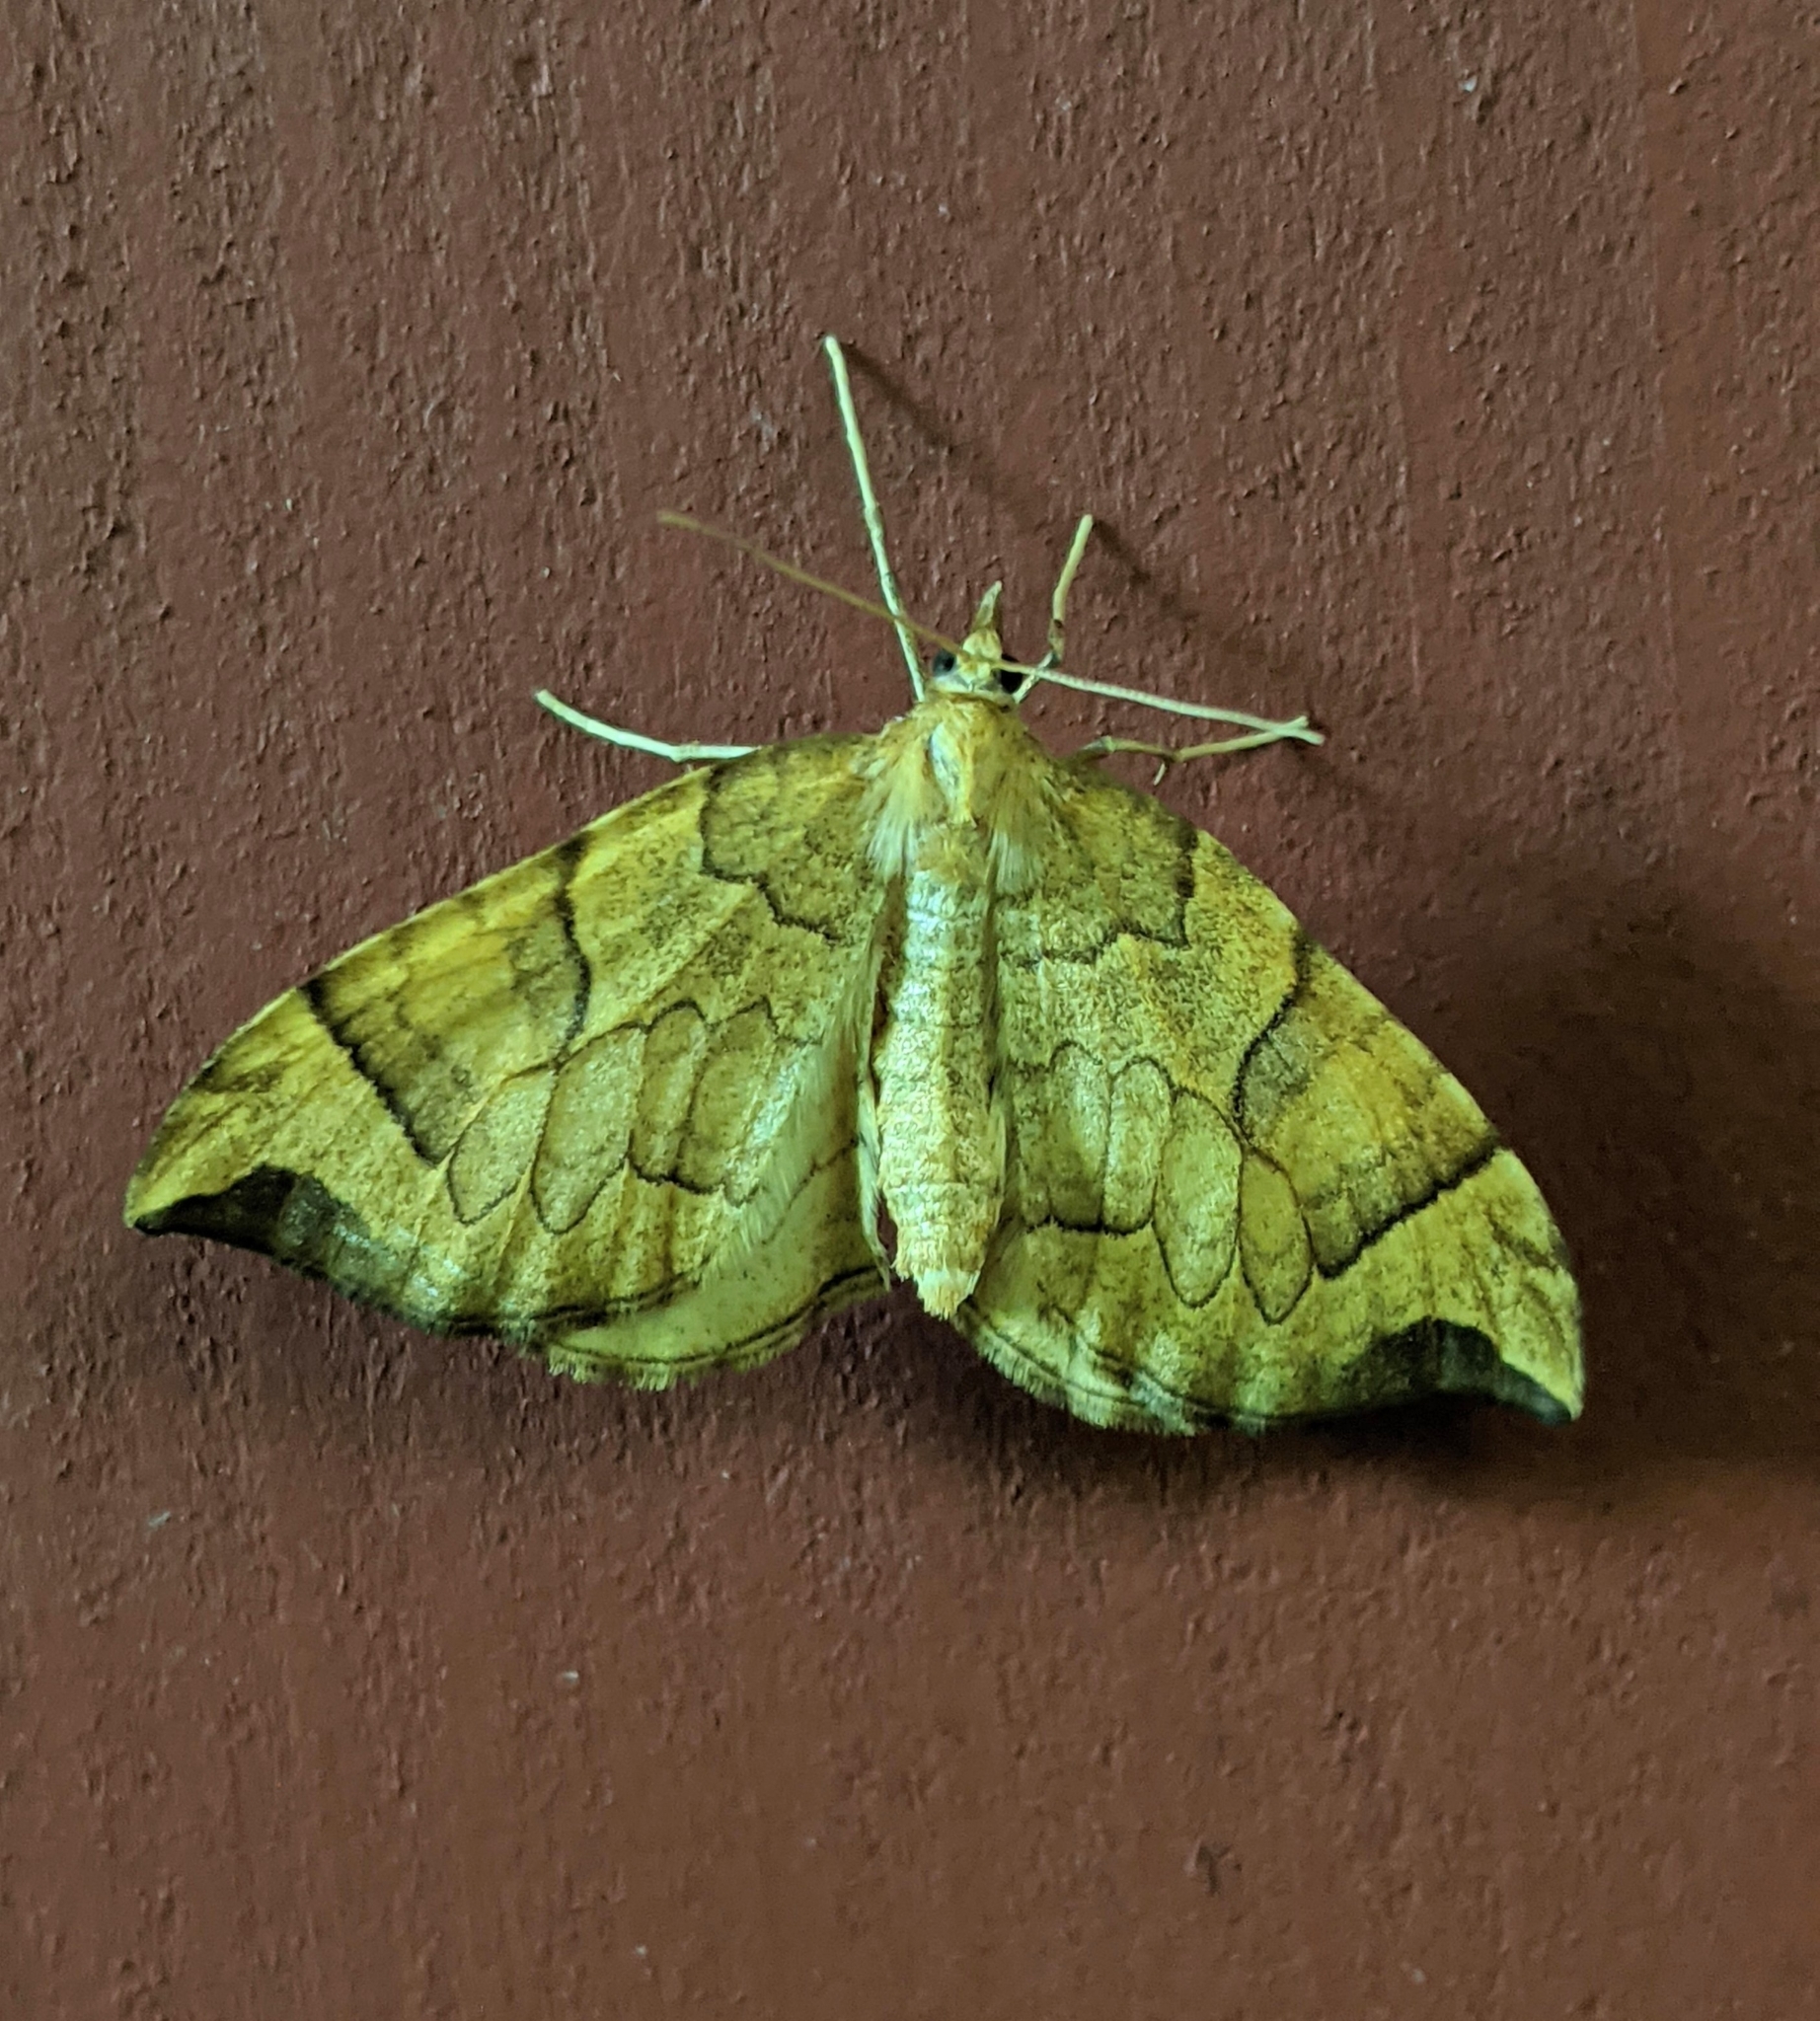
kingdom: Animalia
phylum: Arthropoda
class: Insecta
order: Lepidoptera
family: Geometridae
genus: Eulithis
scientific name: Eulithis propulsata
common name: Currant eulithis moth
